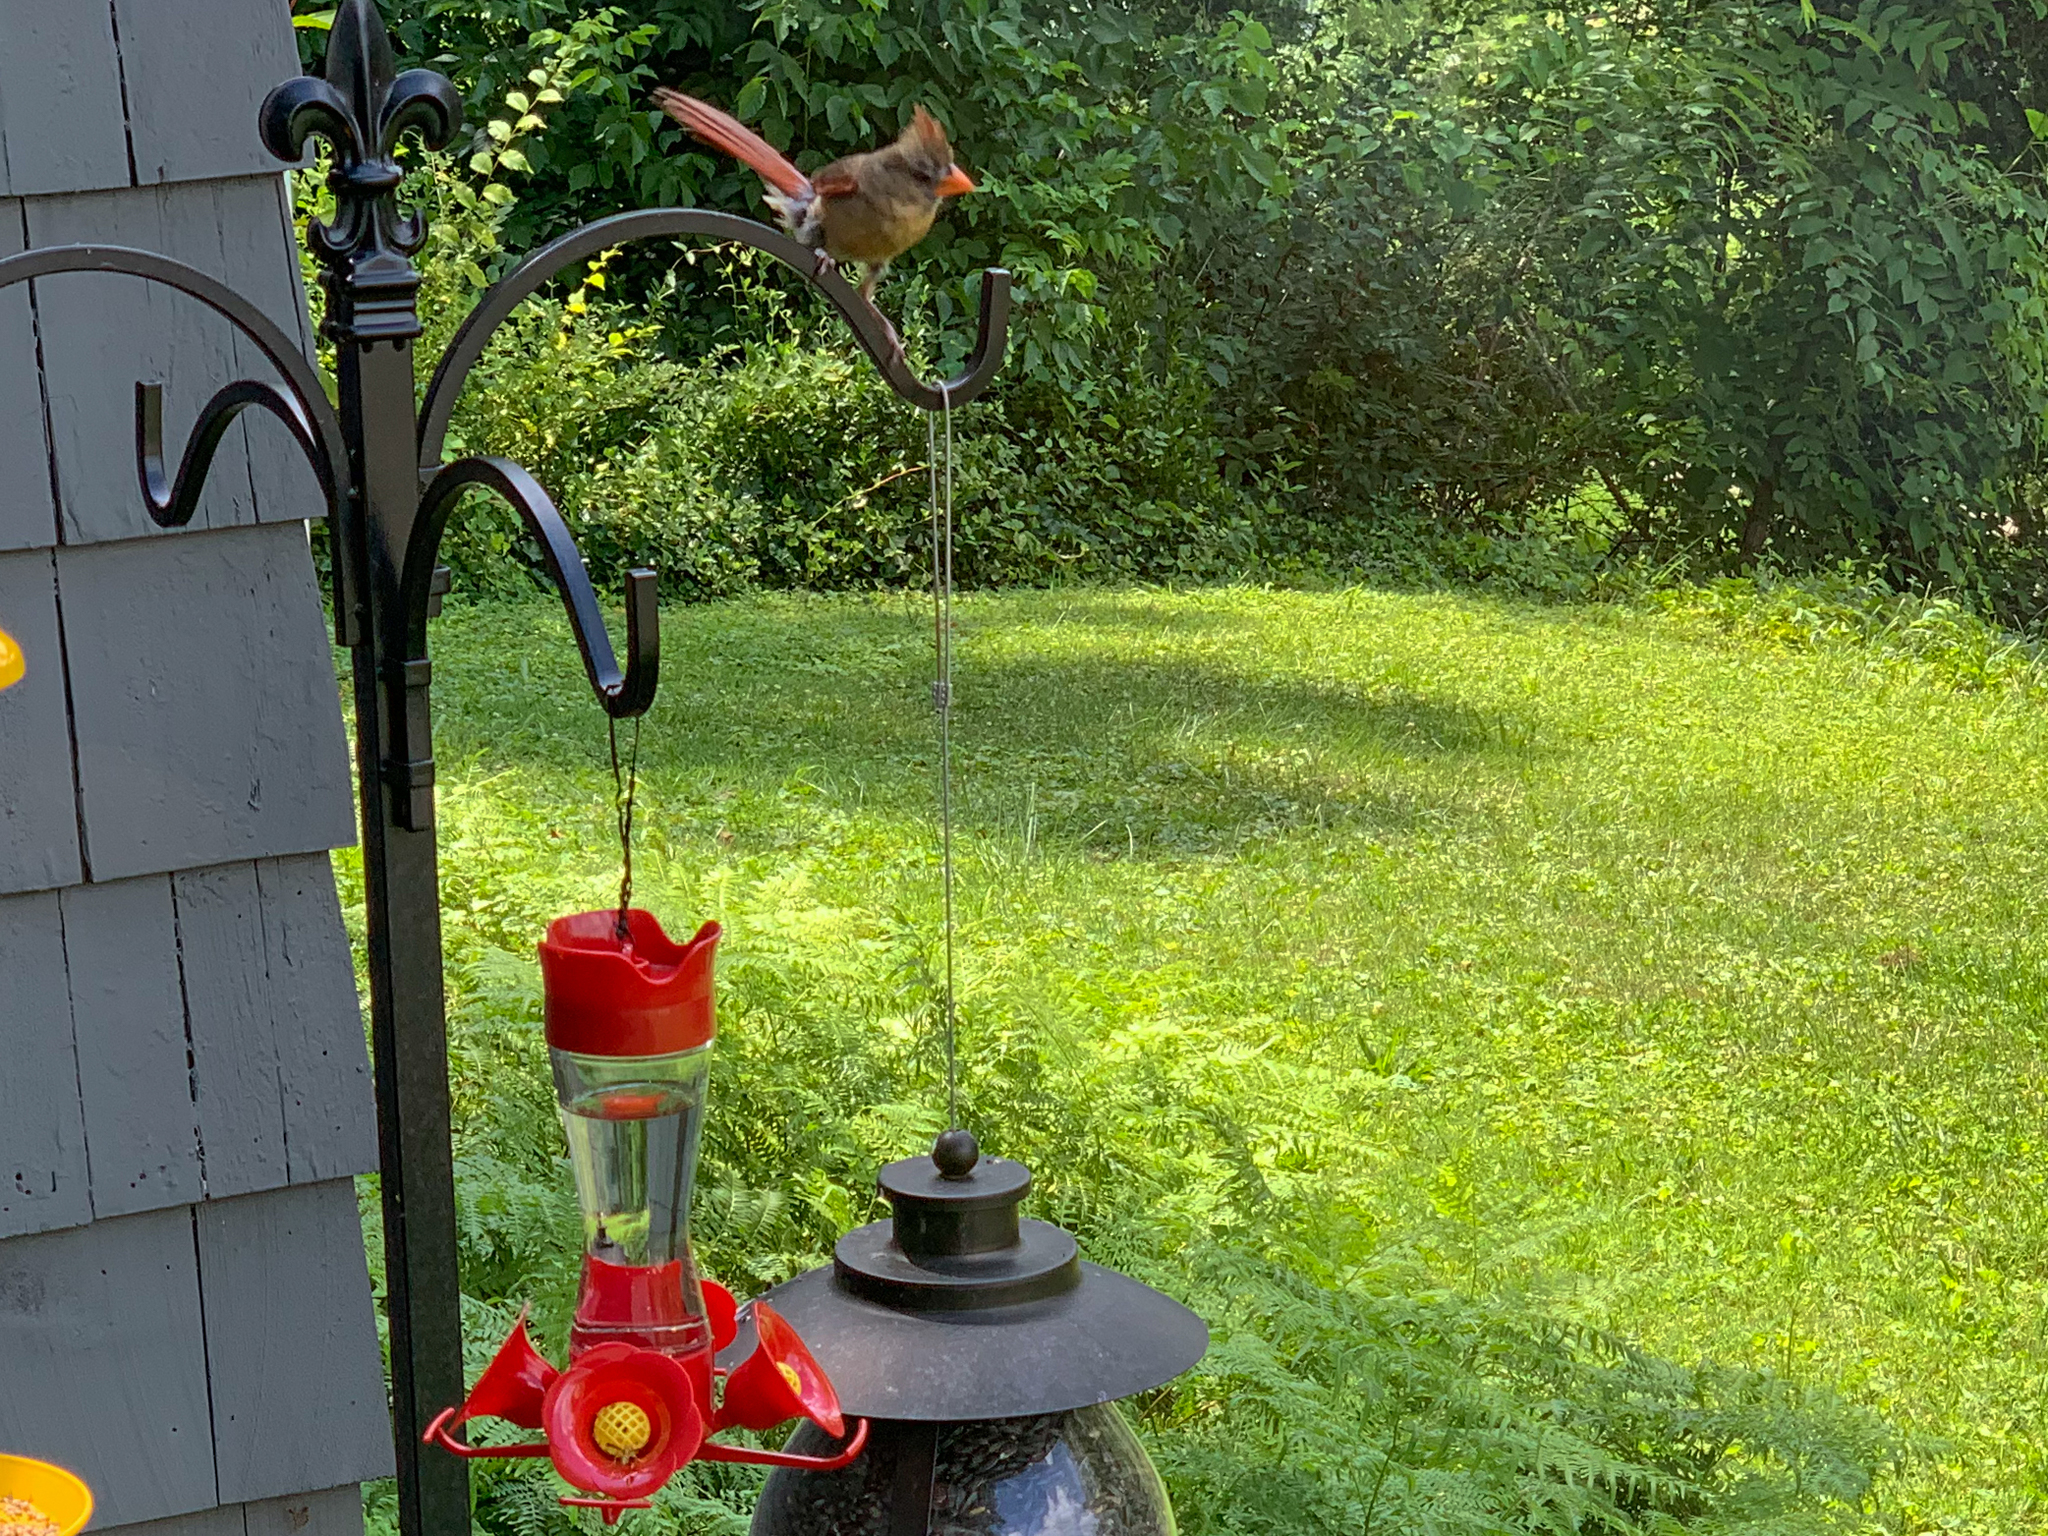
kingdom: Animalia
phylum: Chordata
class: Aves
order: Passeriformes
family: Cardinalidae
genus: Cardinalis
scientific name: Cardinalis cardinalis
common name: Northern cardinal
